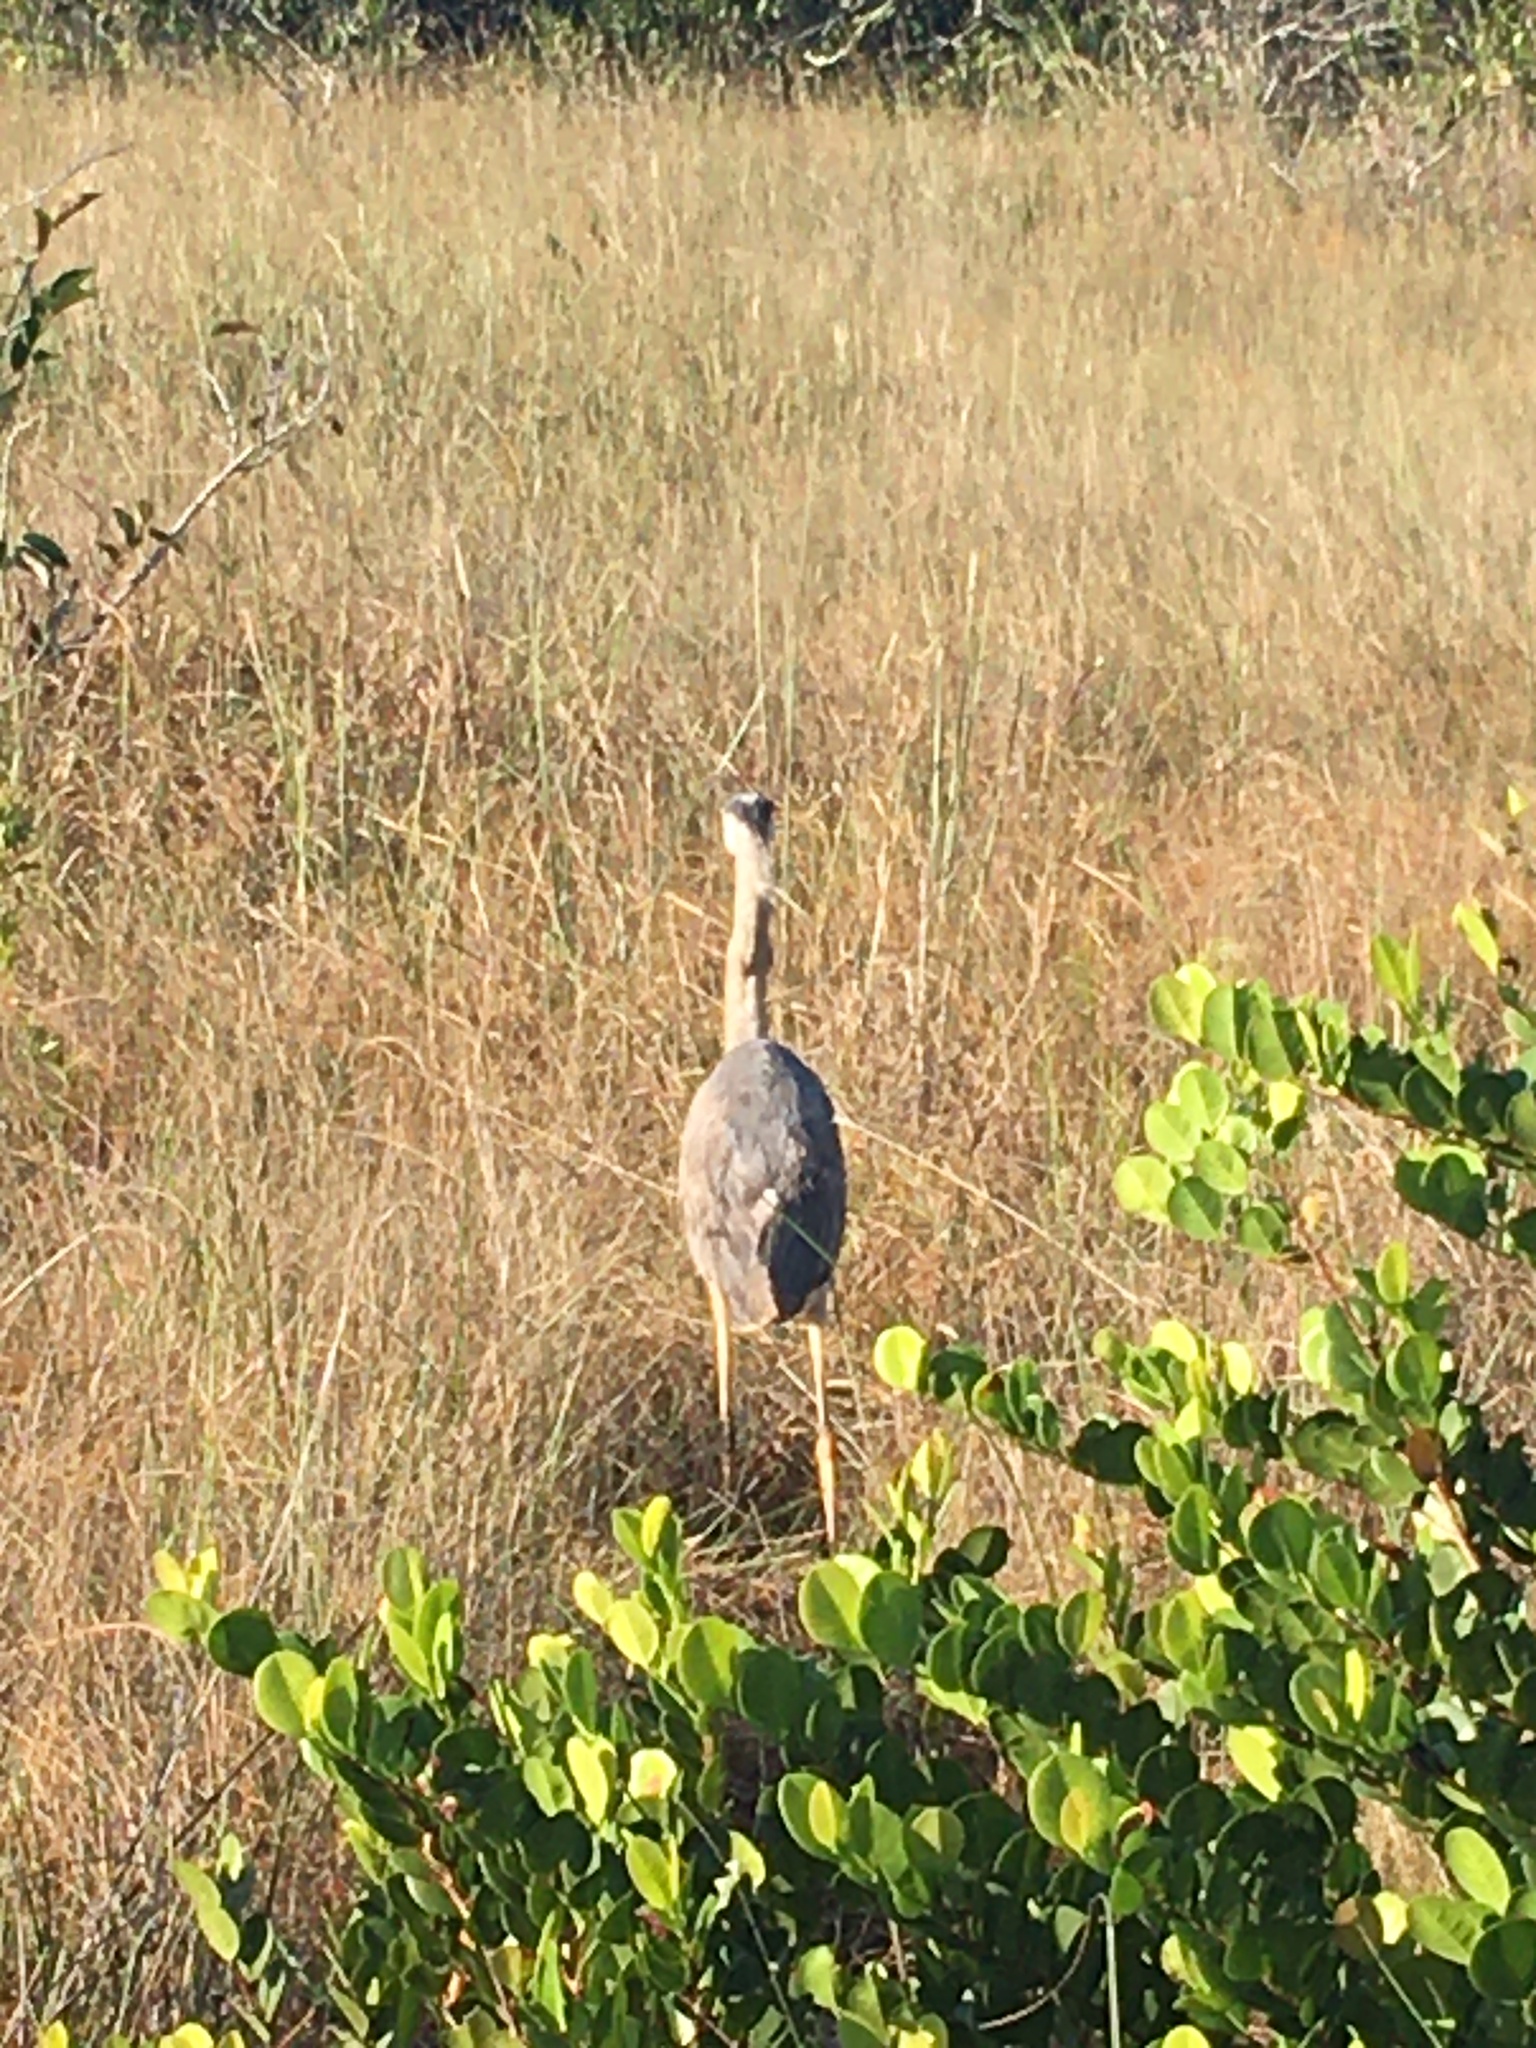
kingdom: Animalia
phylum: Chordata
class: Aves
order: Pelecaniformes
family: Ardeidae
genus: Ardea
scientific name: Ardea herodias
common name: Great blue heron
